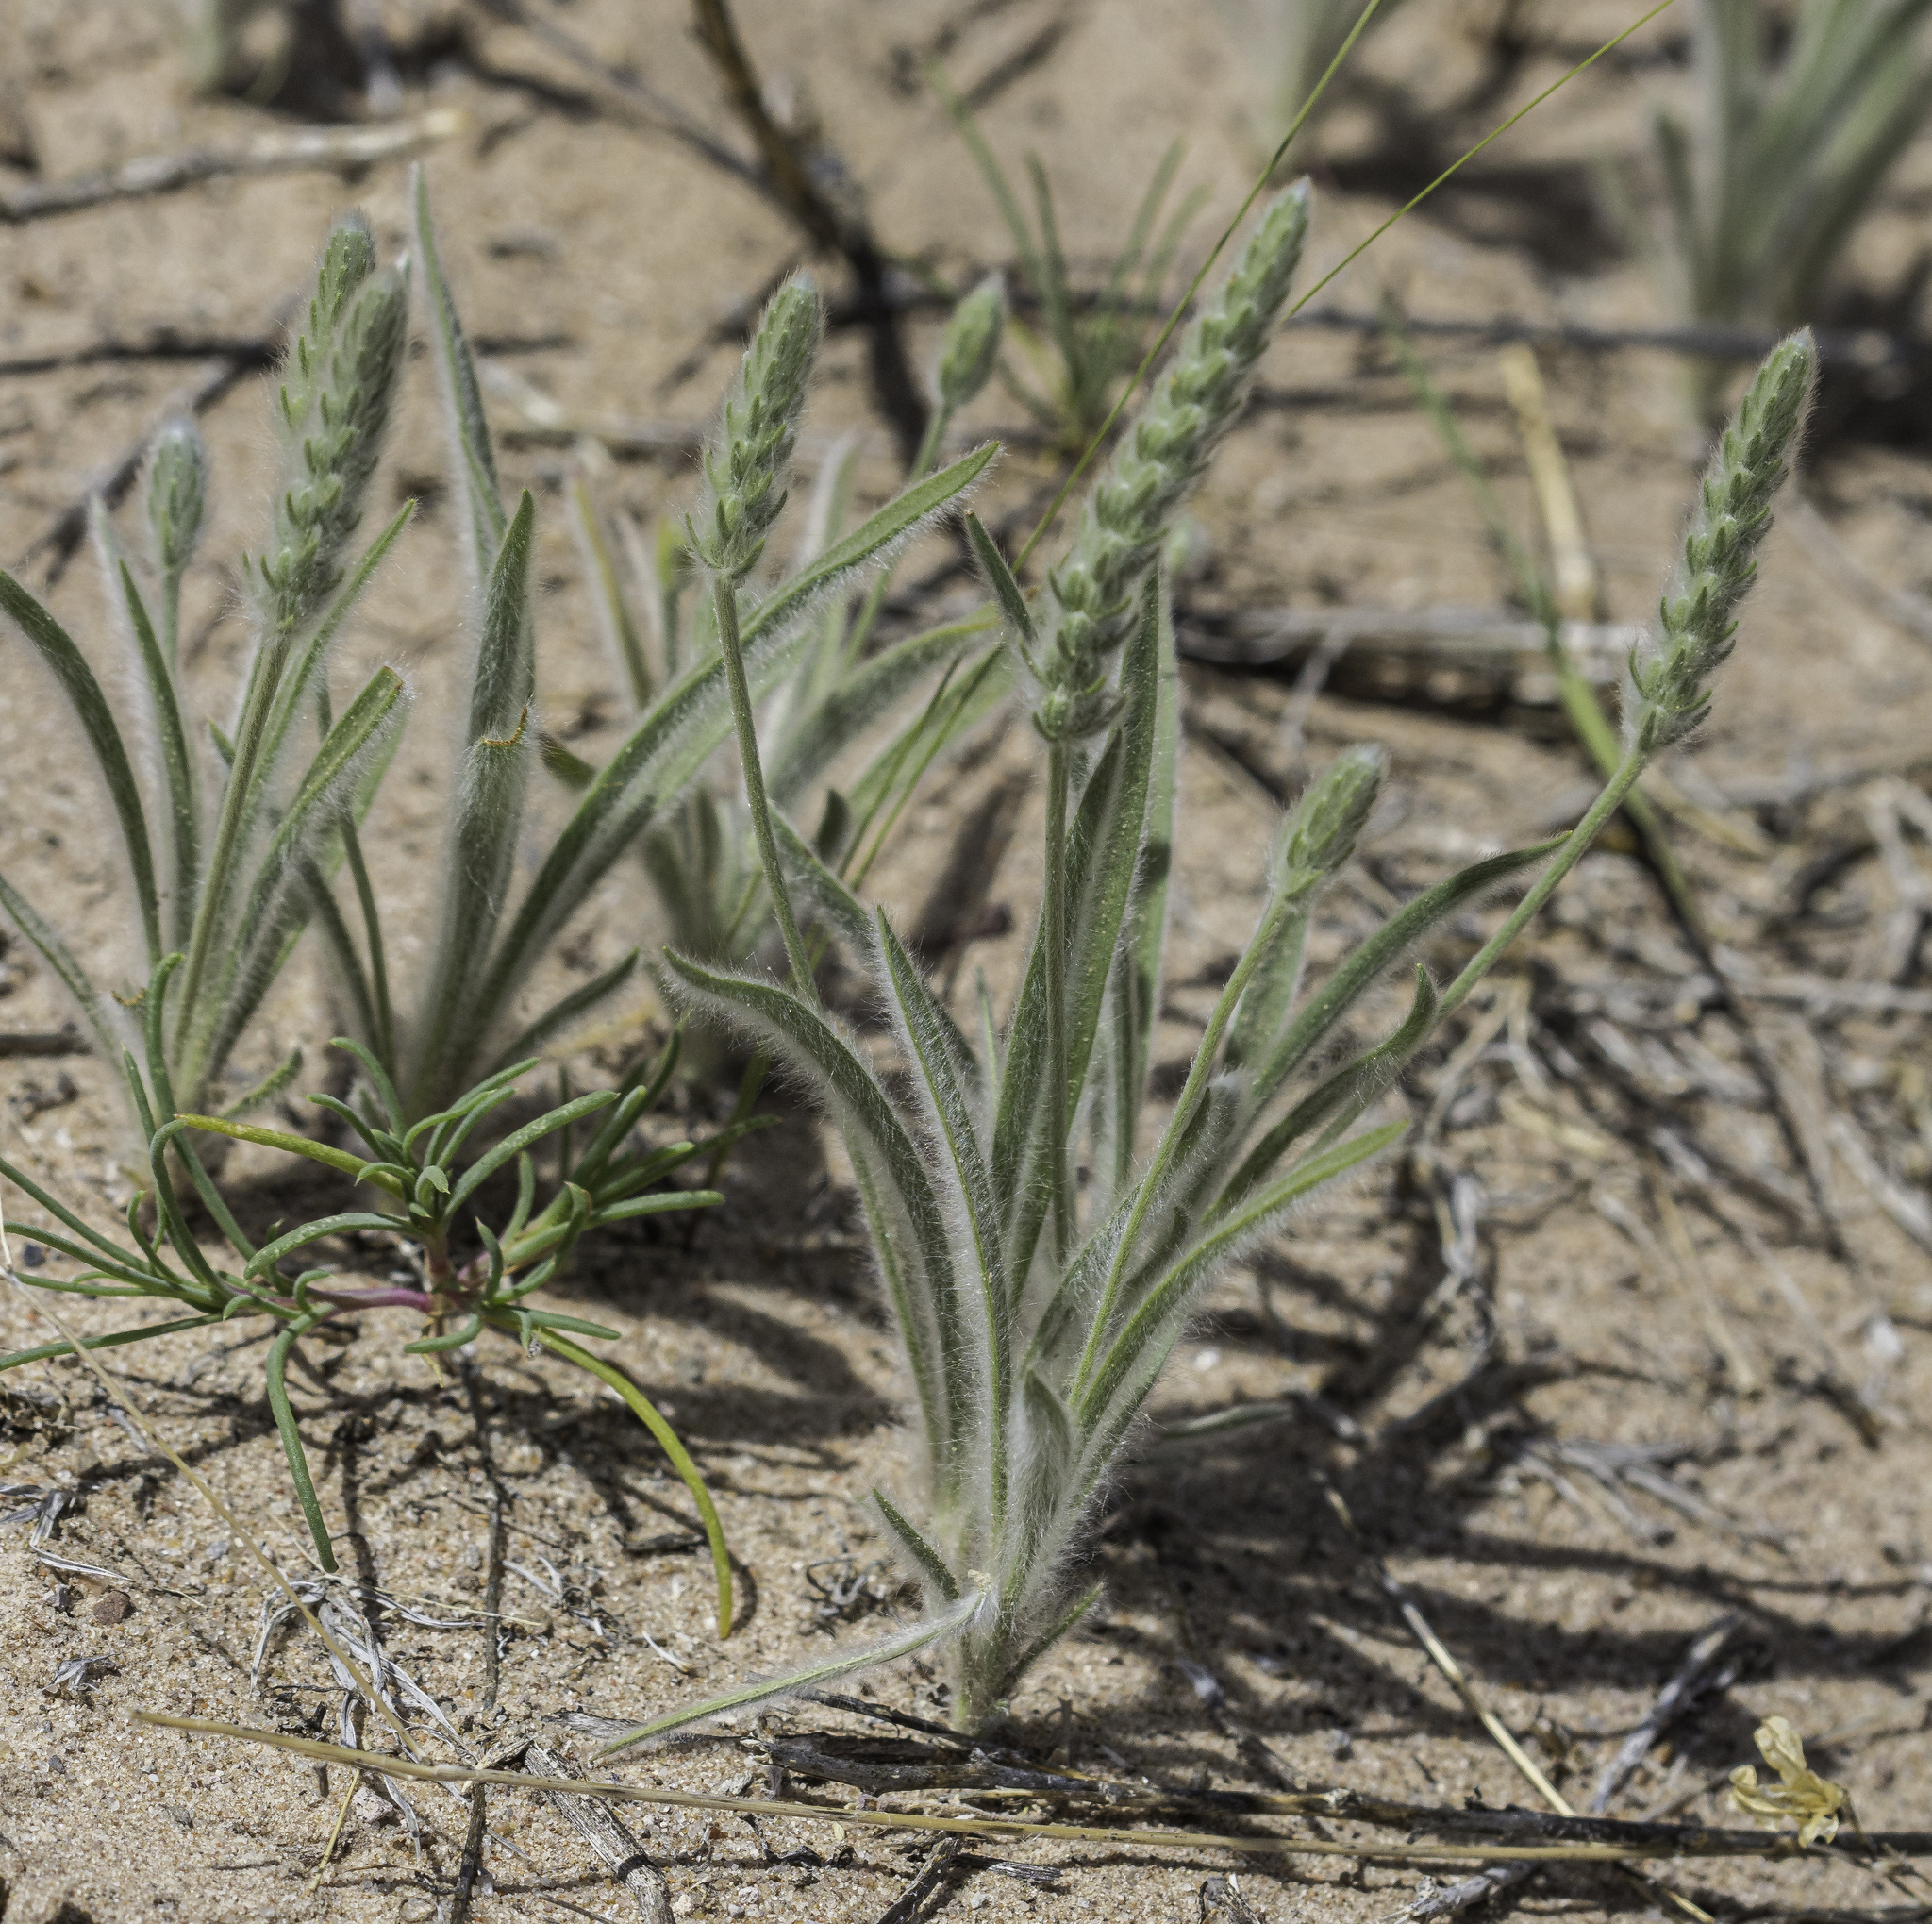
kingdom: Plantae
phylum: Tracheophyta
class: Magnoliopsida
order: Lamiales
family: Plantaginaceae
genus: Plantago
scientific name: Plantago patagonica
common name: Patagonia indian-wheat
